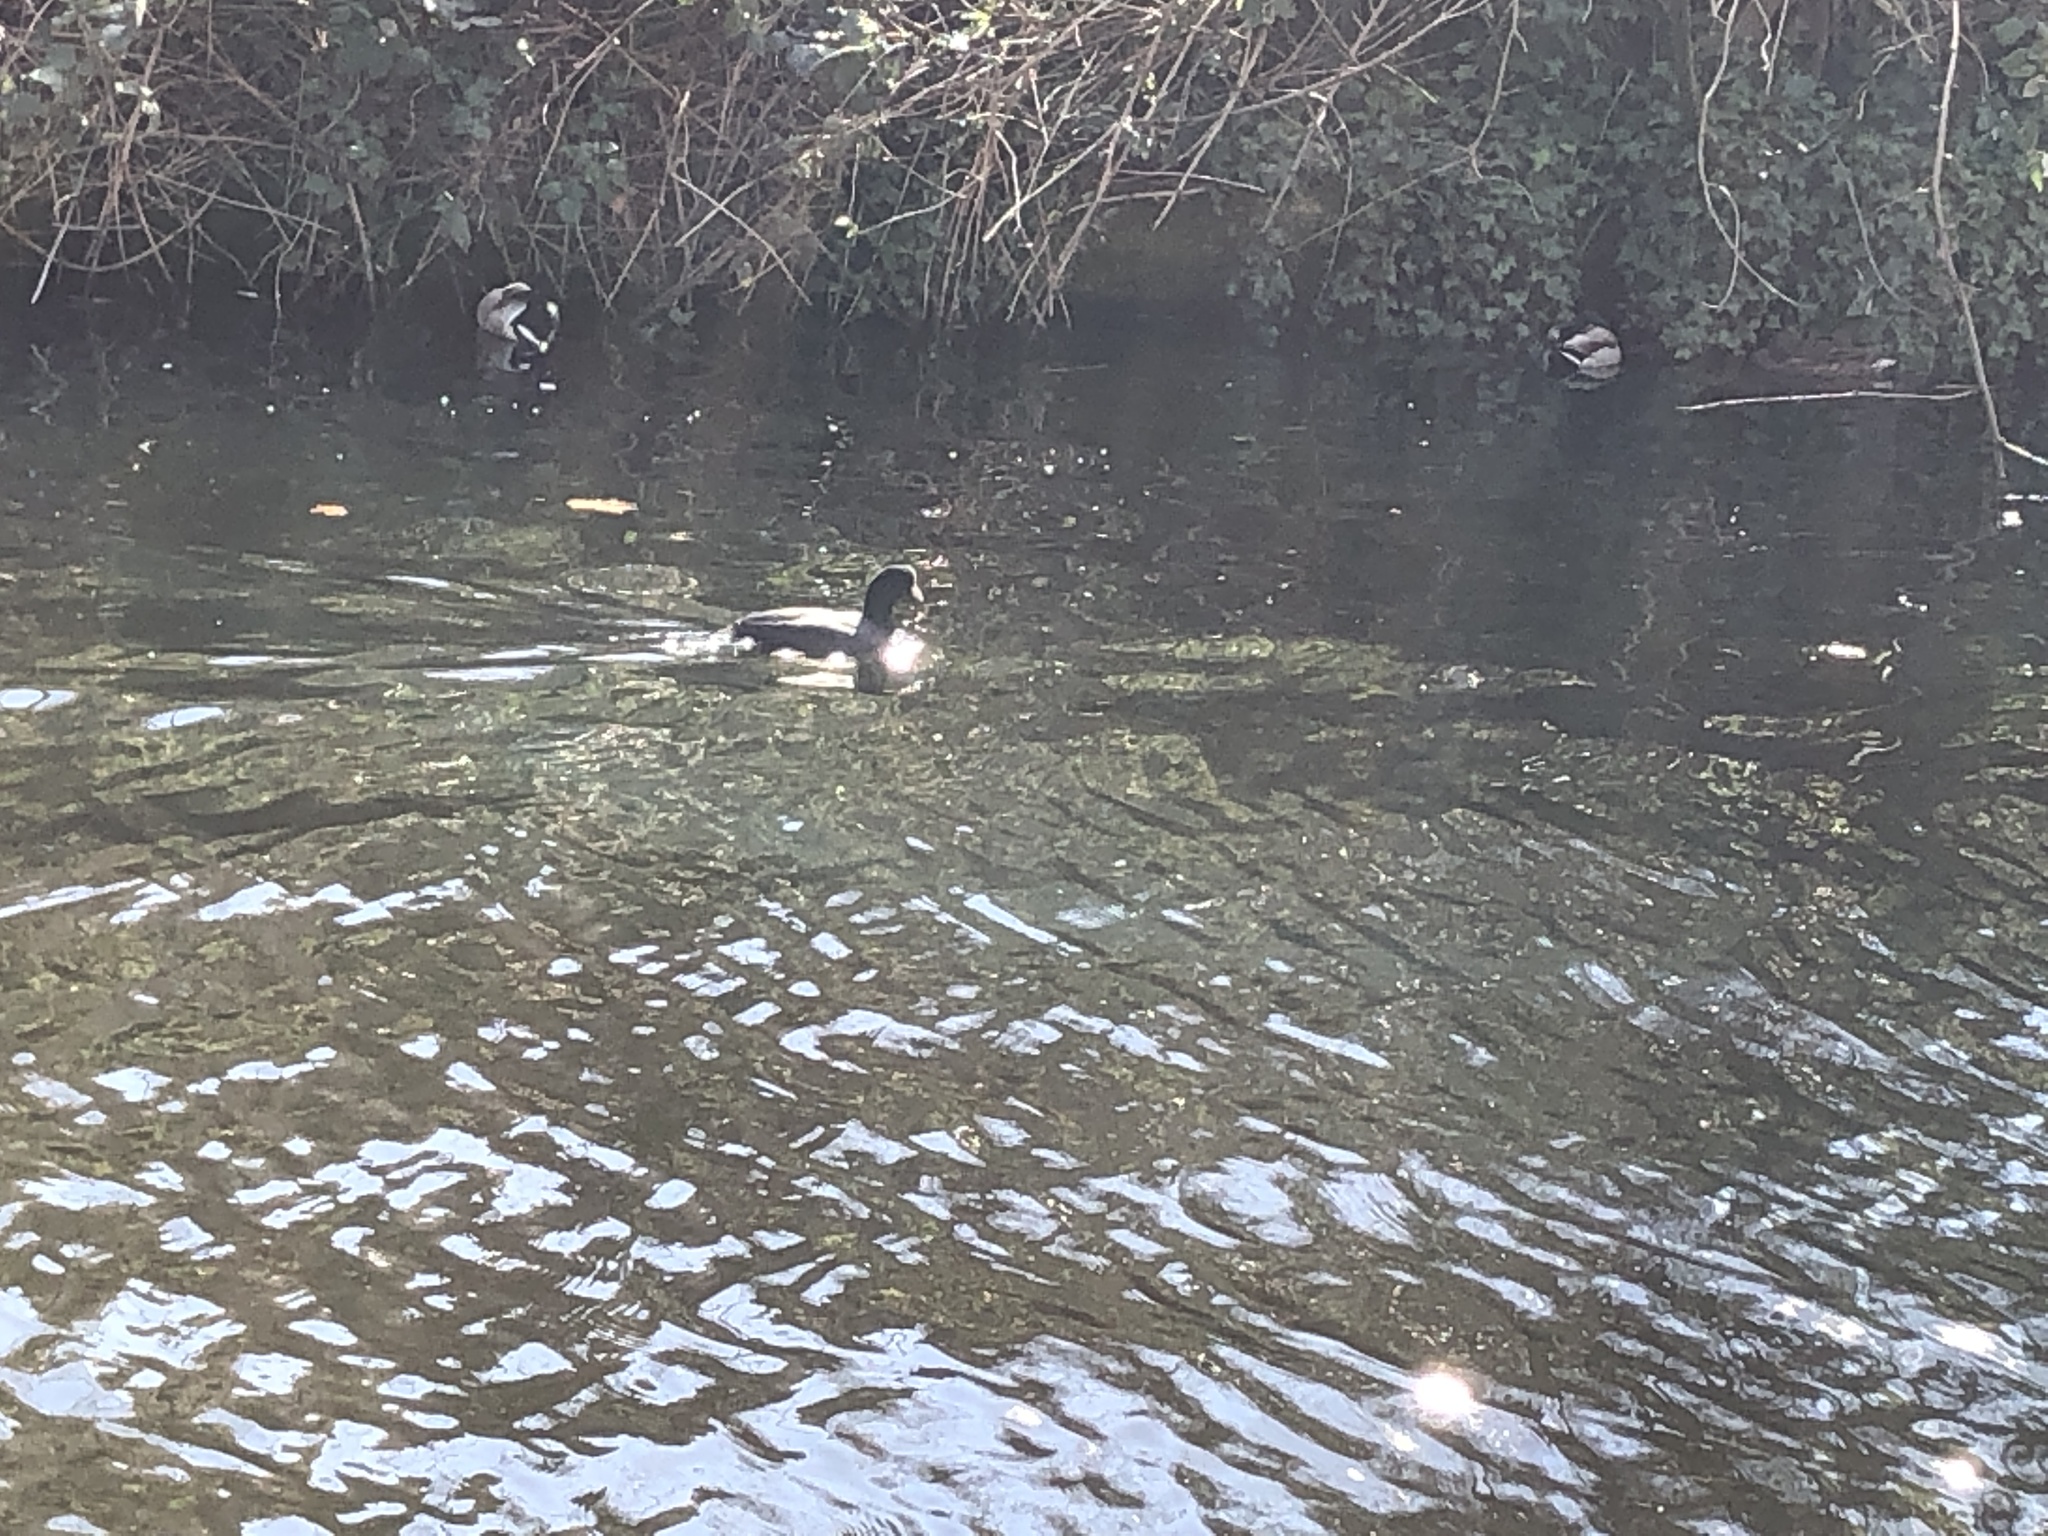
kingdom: Animalia
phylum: Chordata
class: Aves
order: Gruiformes
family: Rallidae
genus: Fulica
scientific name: Fulica atra
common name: Eurasian coot
